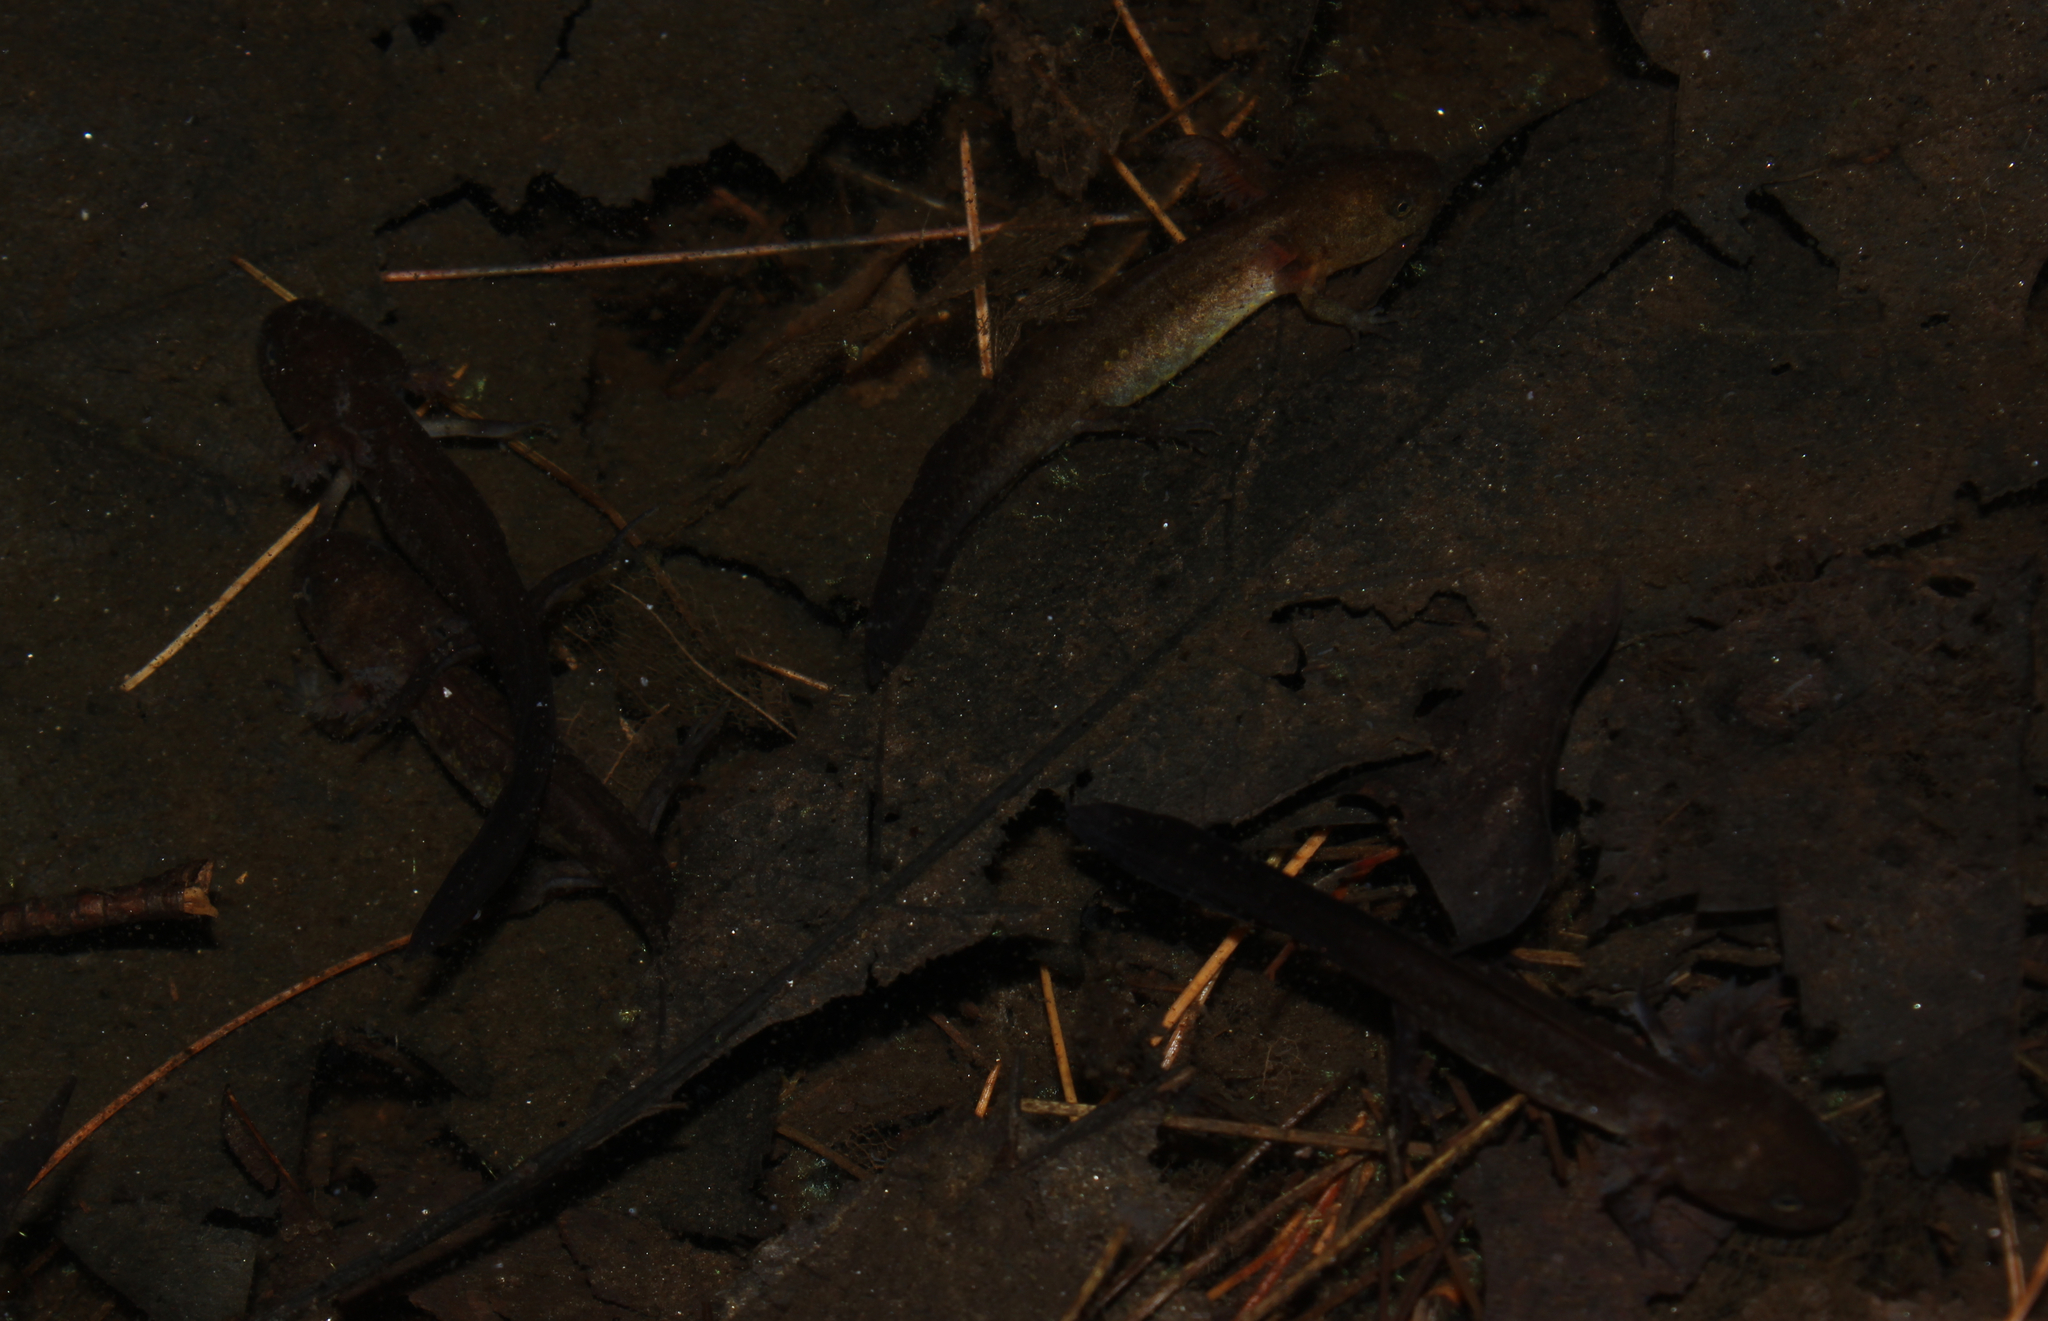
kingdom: Animalia
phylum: Chordata
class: Amphibia
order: Caudata
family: Ambystomatidae
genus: Ambystoma
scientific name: Ambystoma maculatum
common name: Spotted salamander
